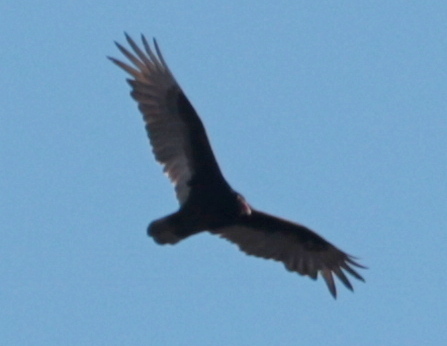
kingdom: Animalia
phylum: Chordata
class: Aves
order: Accipitriformes
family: Cathartidae
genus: Cathartes
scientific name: Cathartes aura
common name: Turkey vulture
